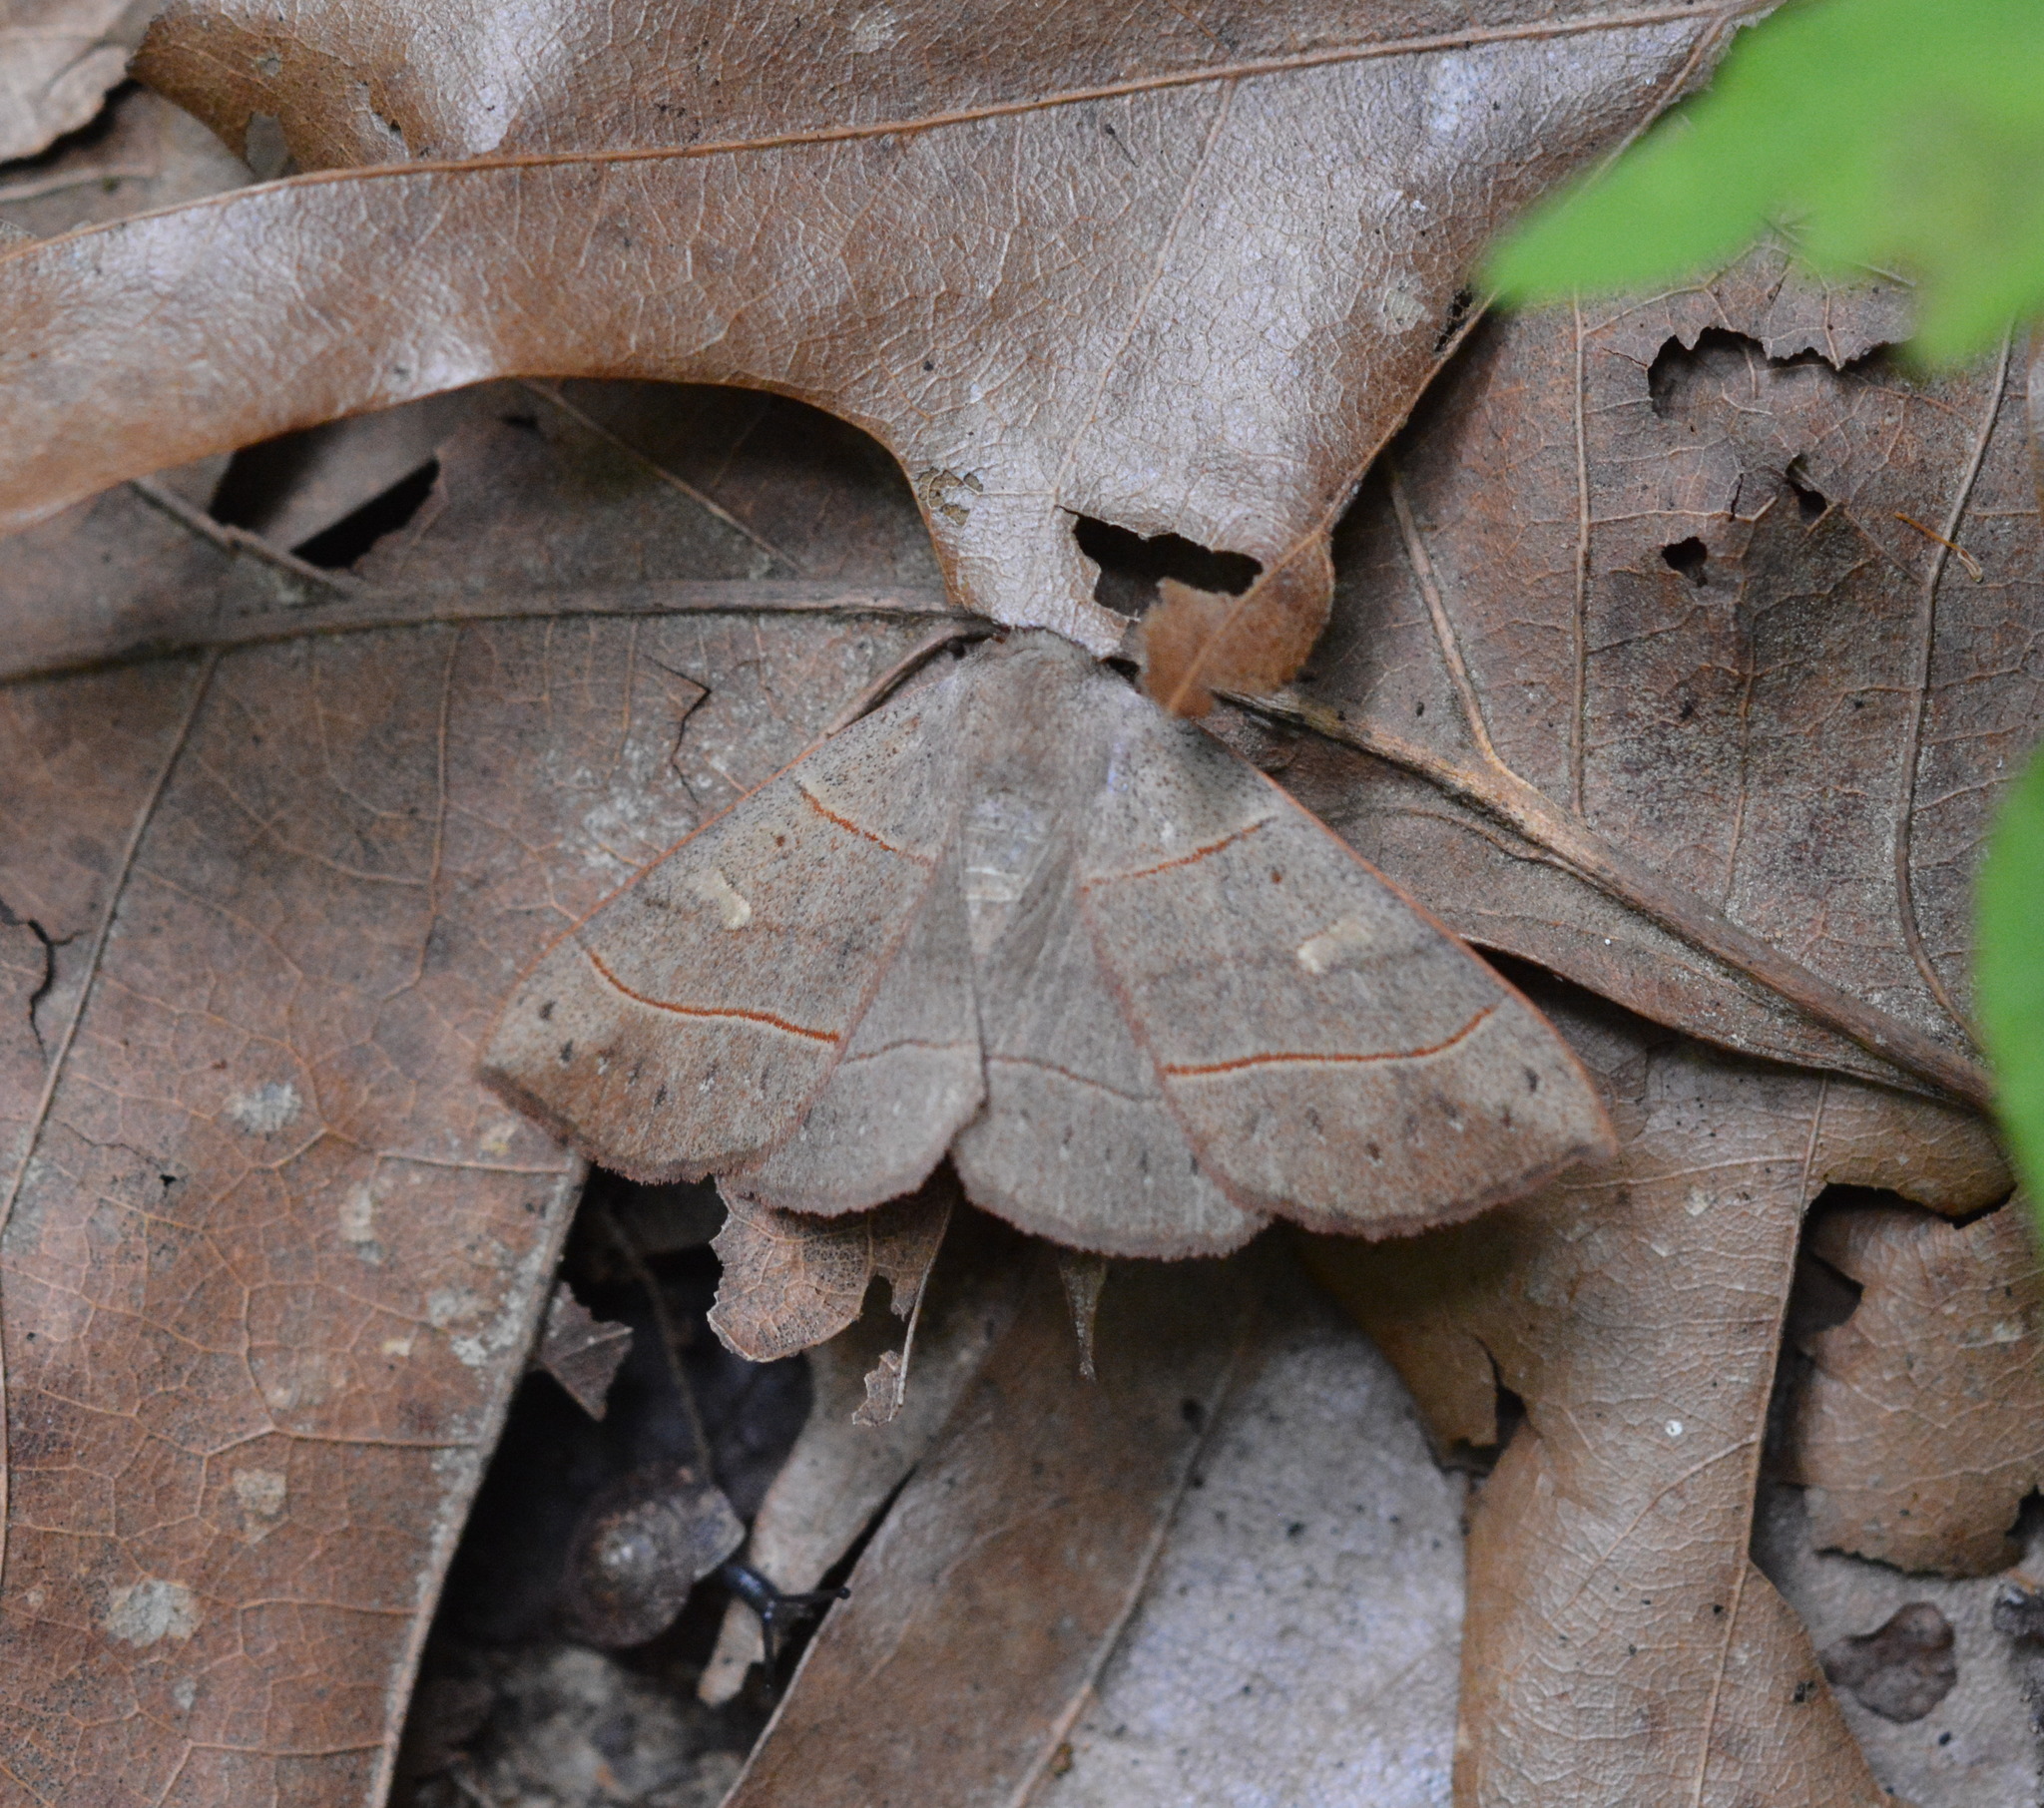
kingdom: Animalia
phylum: Arthropoda
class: Insecta
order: Lepidoptera
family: Erebidae
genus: Panopoda
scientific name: Panopoda rufimargo
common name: Red-lined panopoda moth
